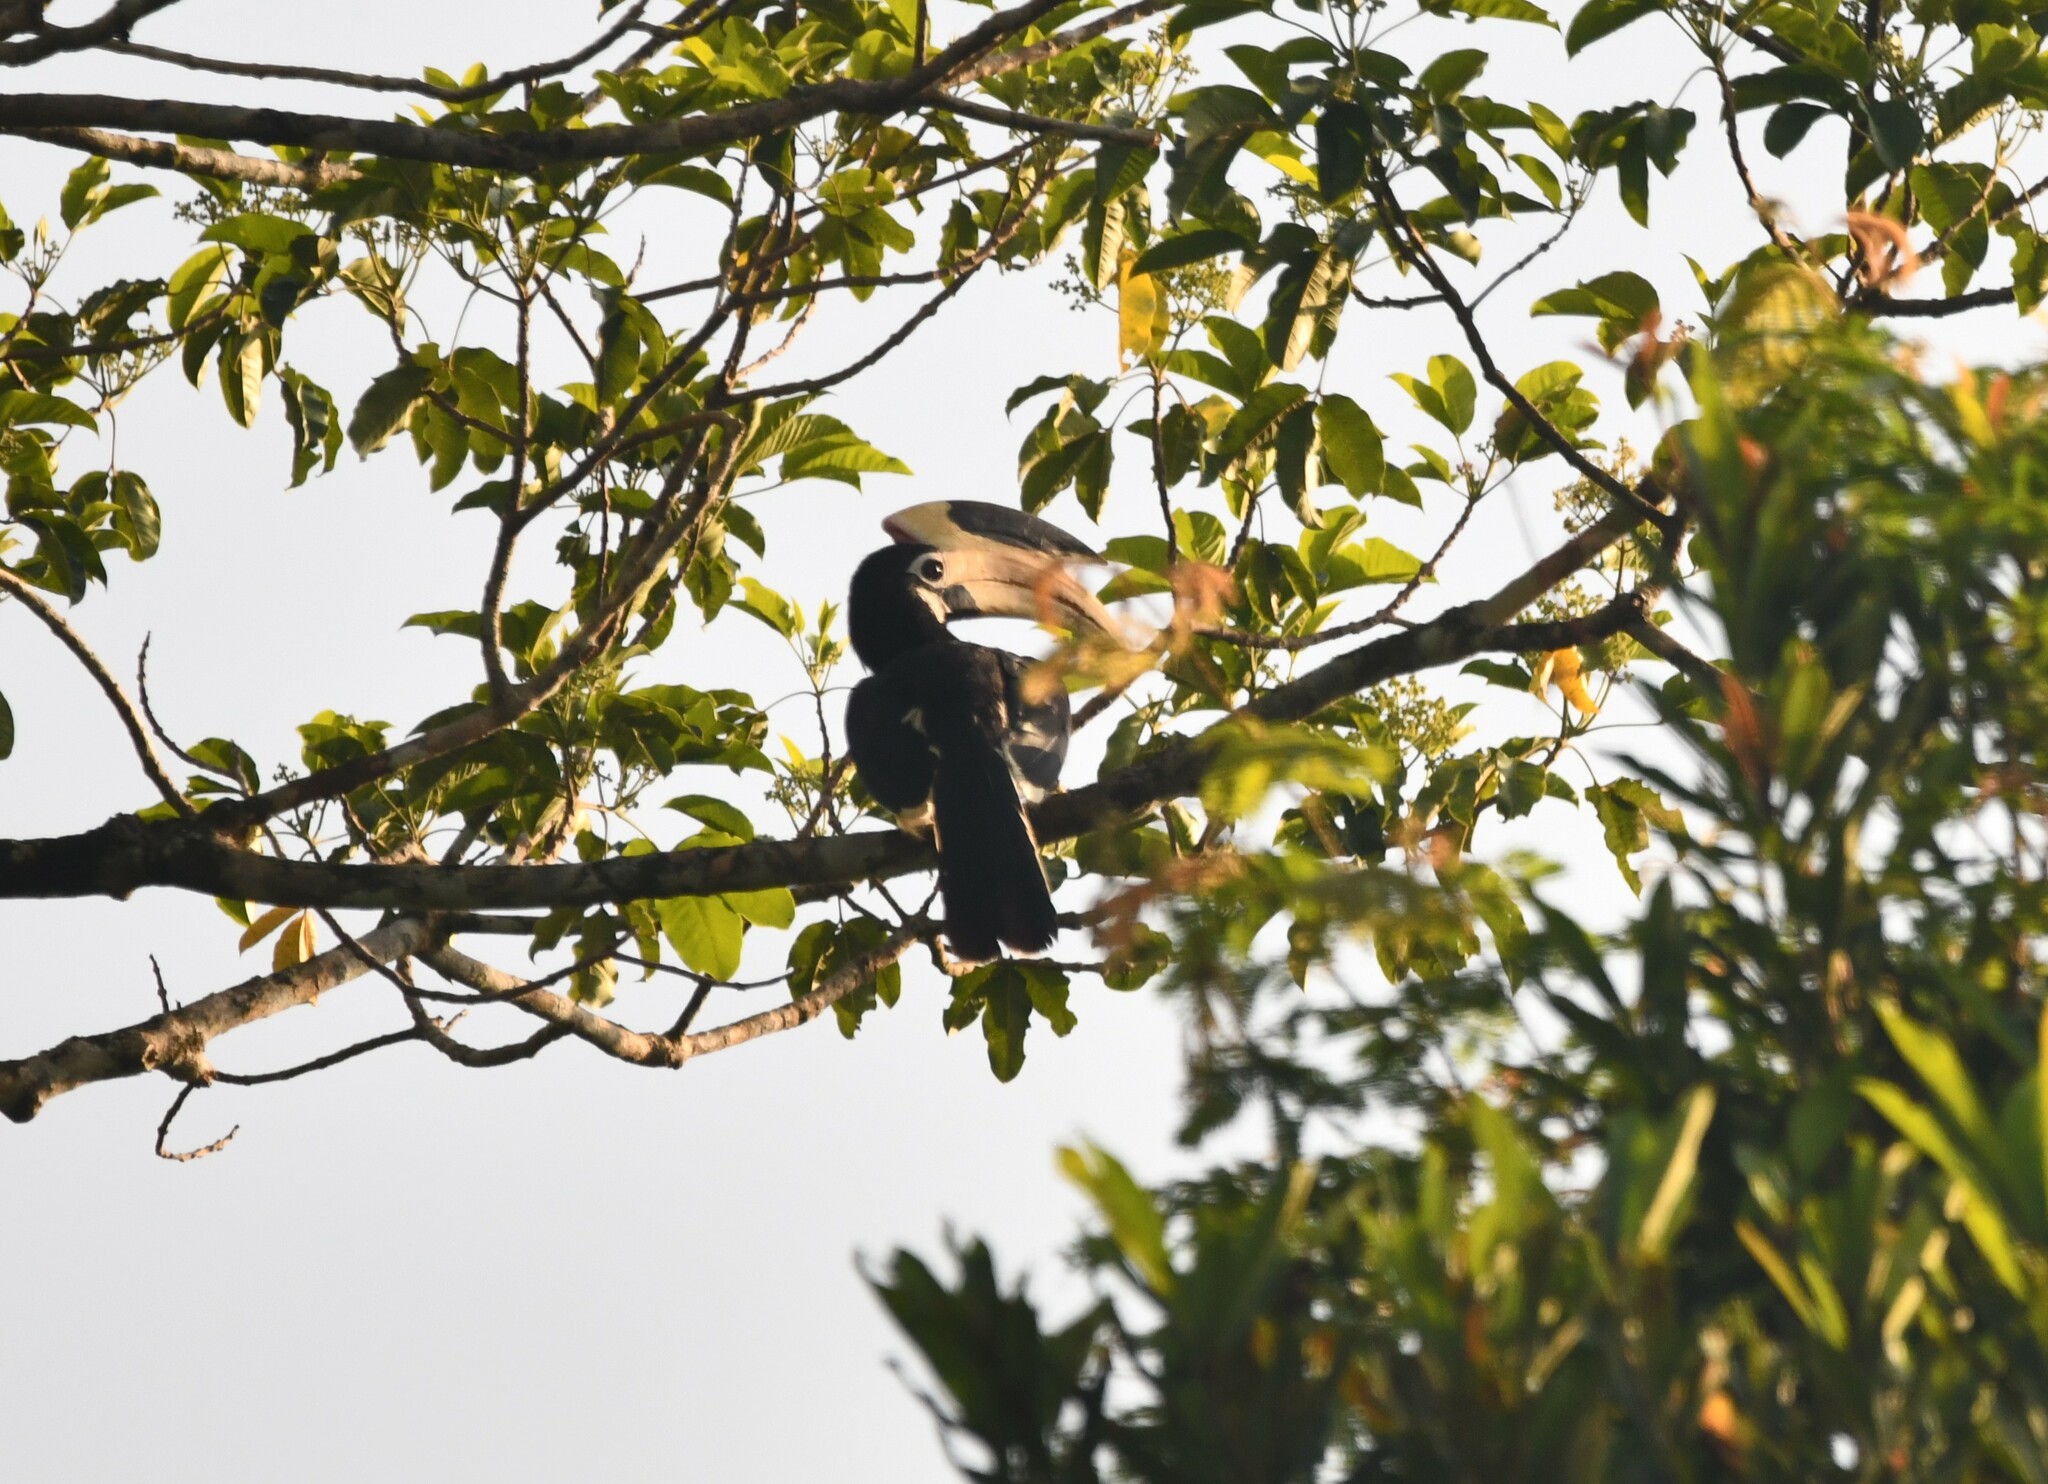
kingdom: Animalia
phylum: Chordata
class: Aves
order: Bucerotiformes
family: Bucerotidae
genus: Anthracoceros
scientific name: Anthracoceros coronatus
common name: Malabar pied hornbill
